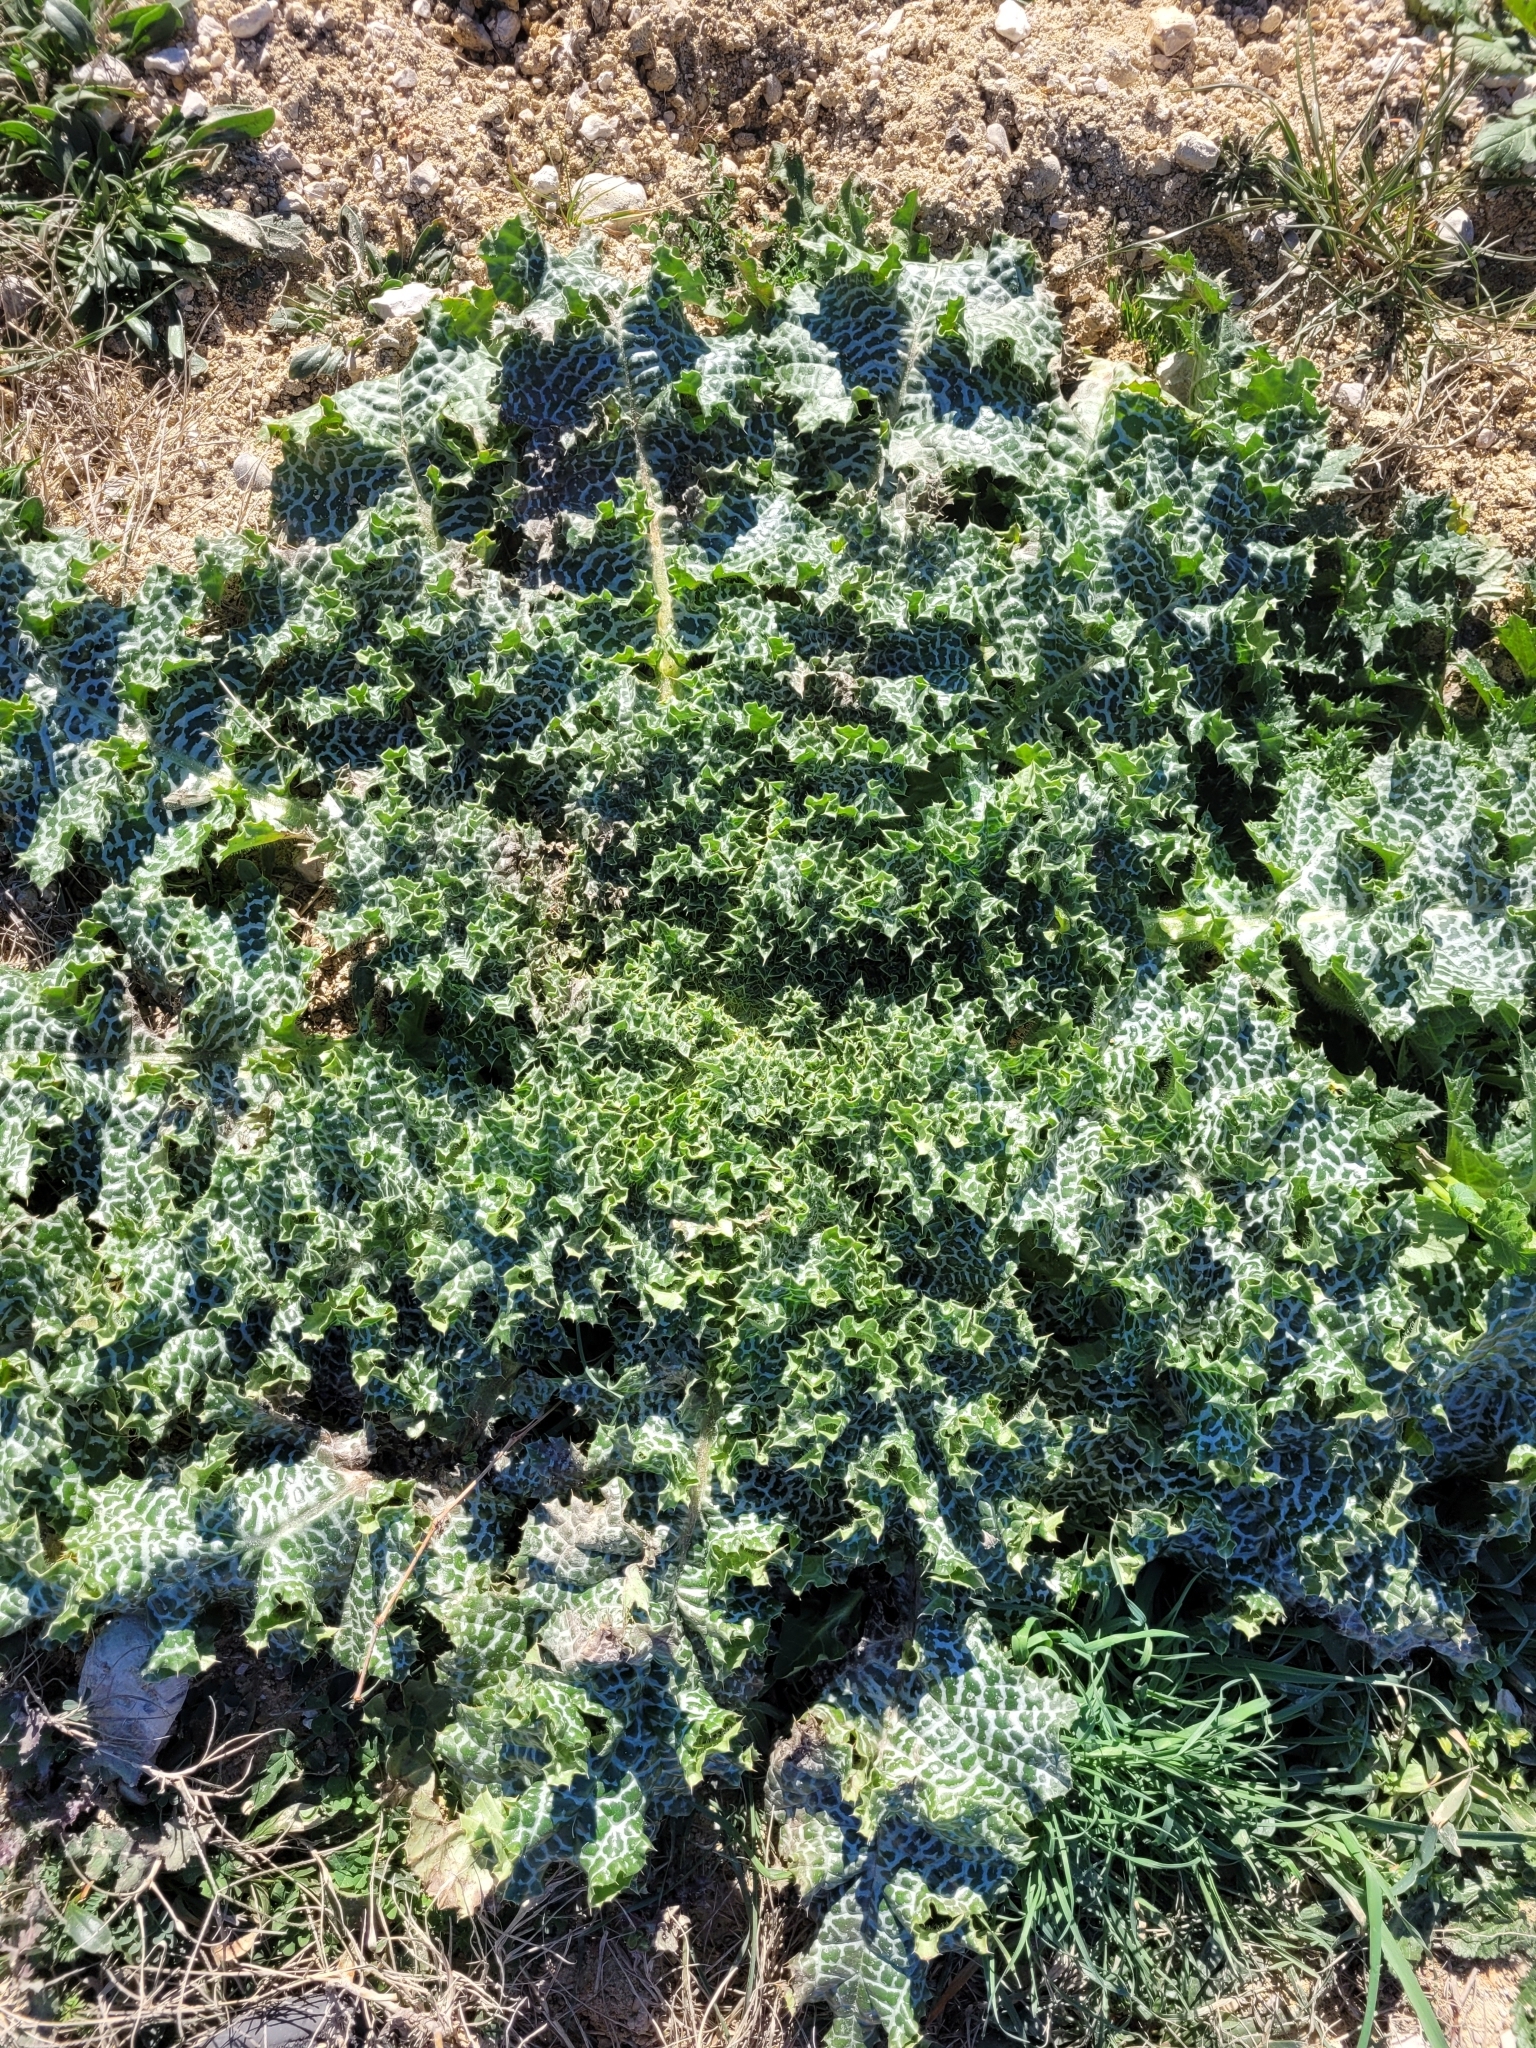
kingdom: Plantae
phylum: Tracheophyta
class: Magnoliopsida
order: Asterales
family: Asteraceae
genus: Silybum
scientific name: Silybum marianum
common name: Milk thistle
